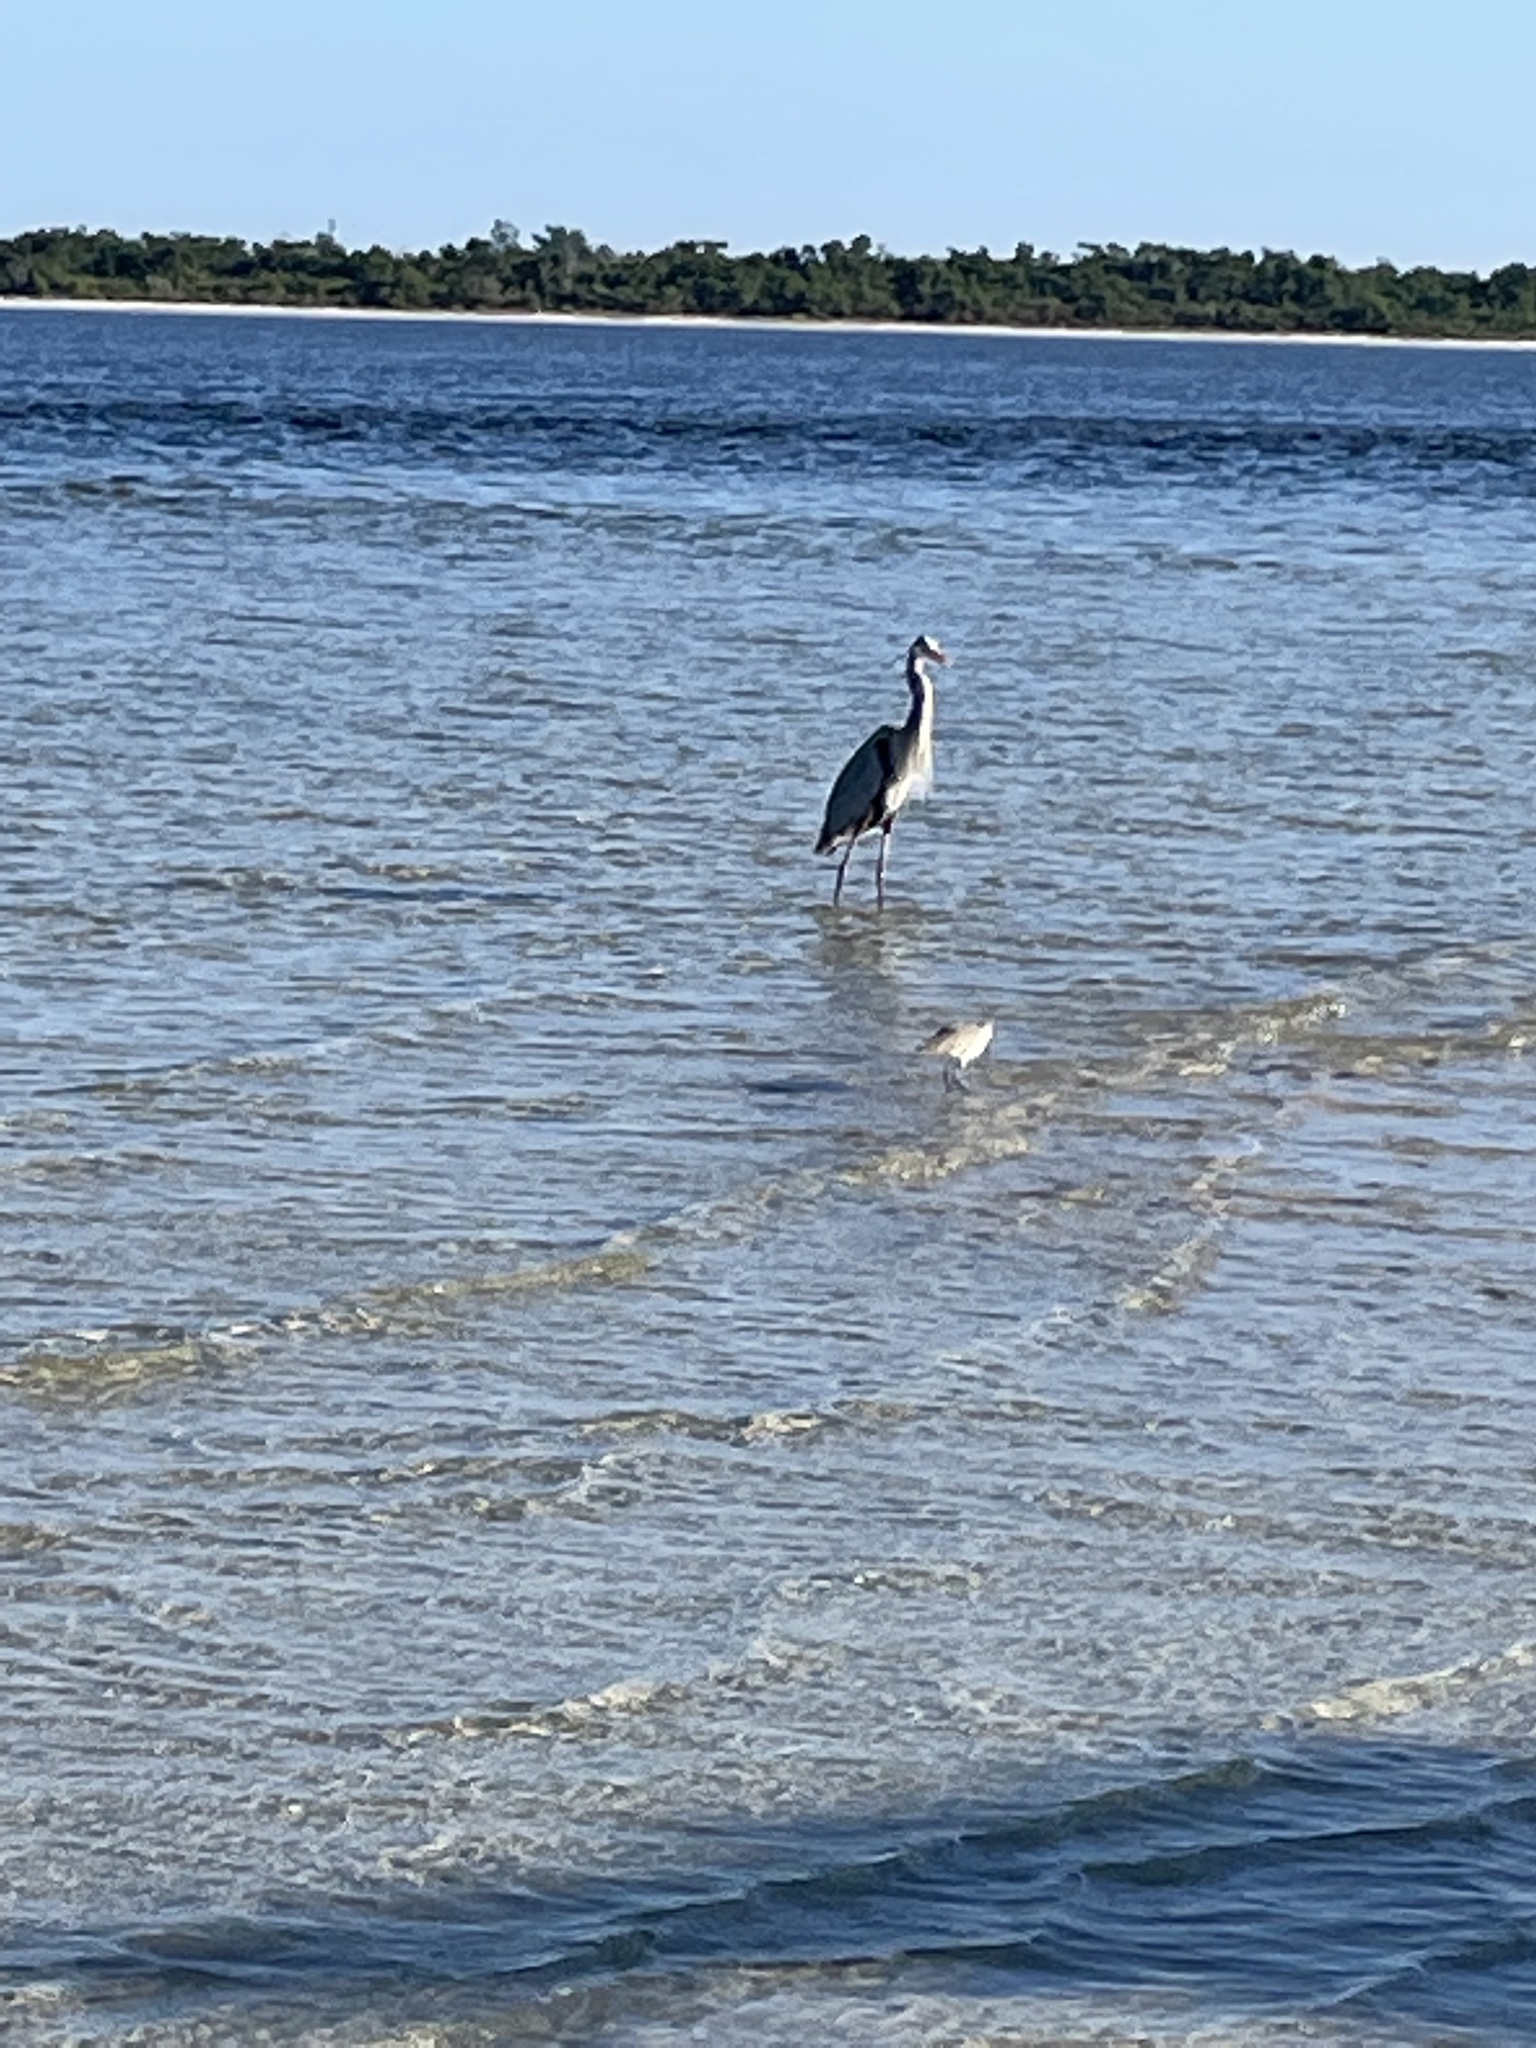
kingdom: Animalia
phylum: Chordata
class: Aves
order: Pelecaniformes
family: Ardeidae
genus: Ardea
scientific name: Ardea herodias
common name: Great blue heron
